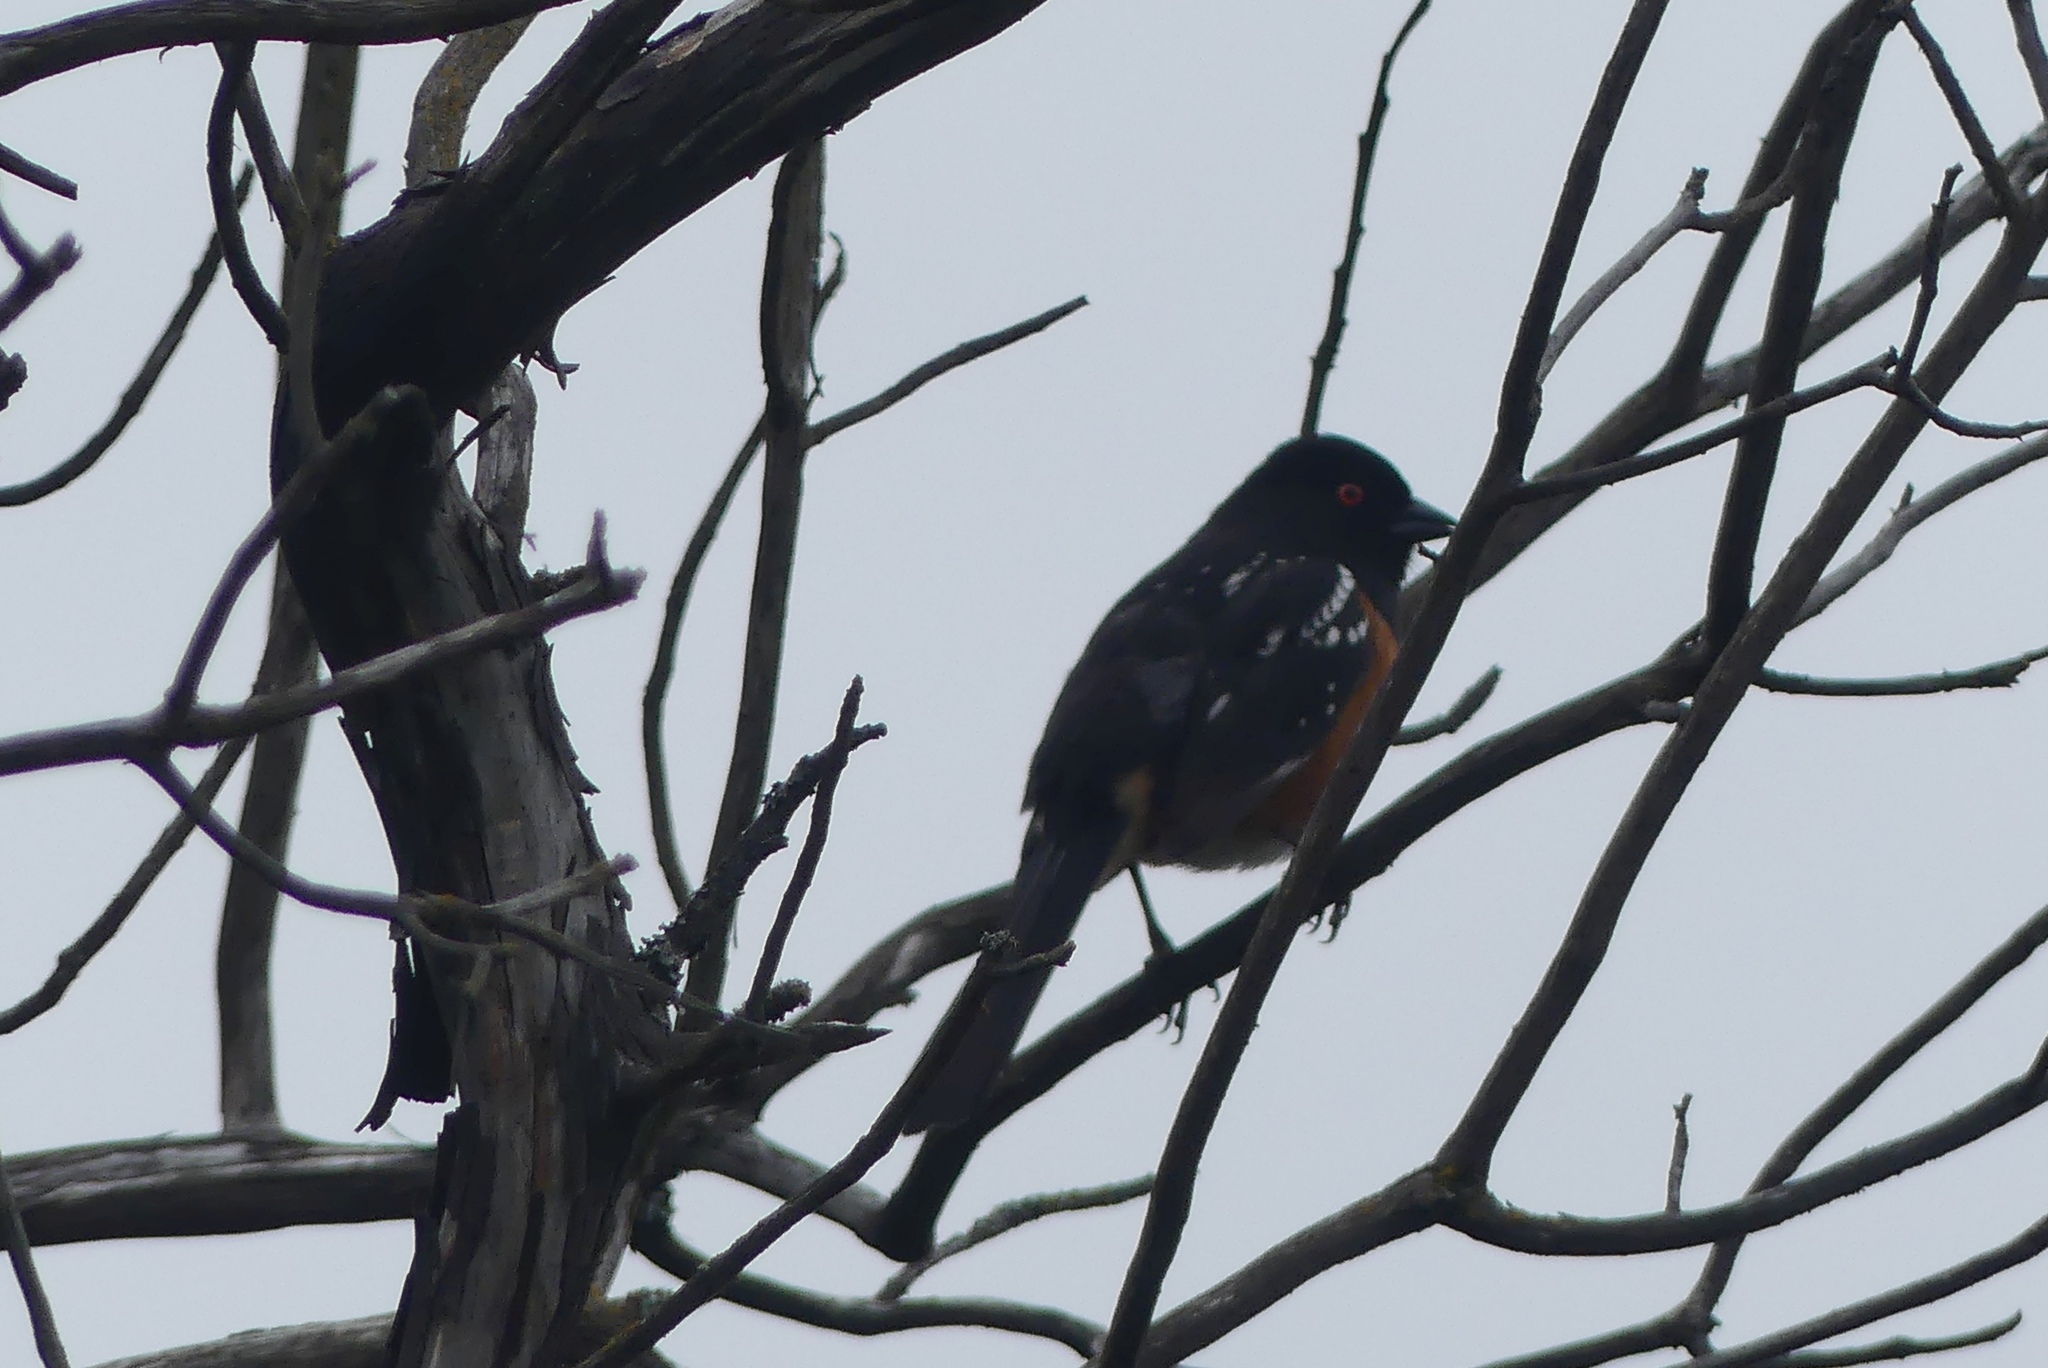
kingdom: Animalia
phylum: Chordata
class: Aves
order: Passeriformes
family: Passerellidae
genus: Pipilo
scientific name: Pipilo maculatus
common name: Spotted towhee
